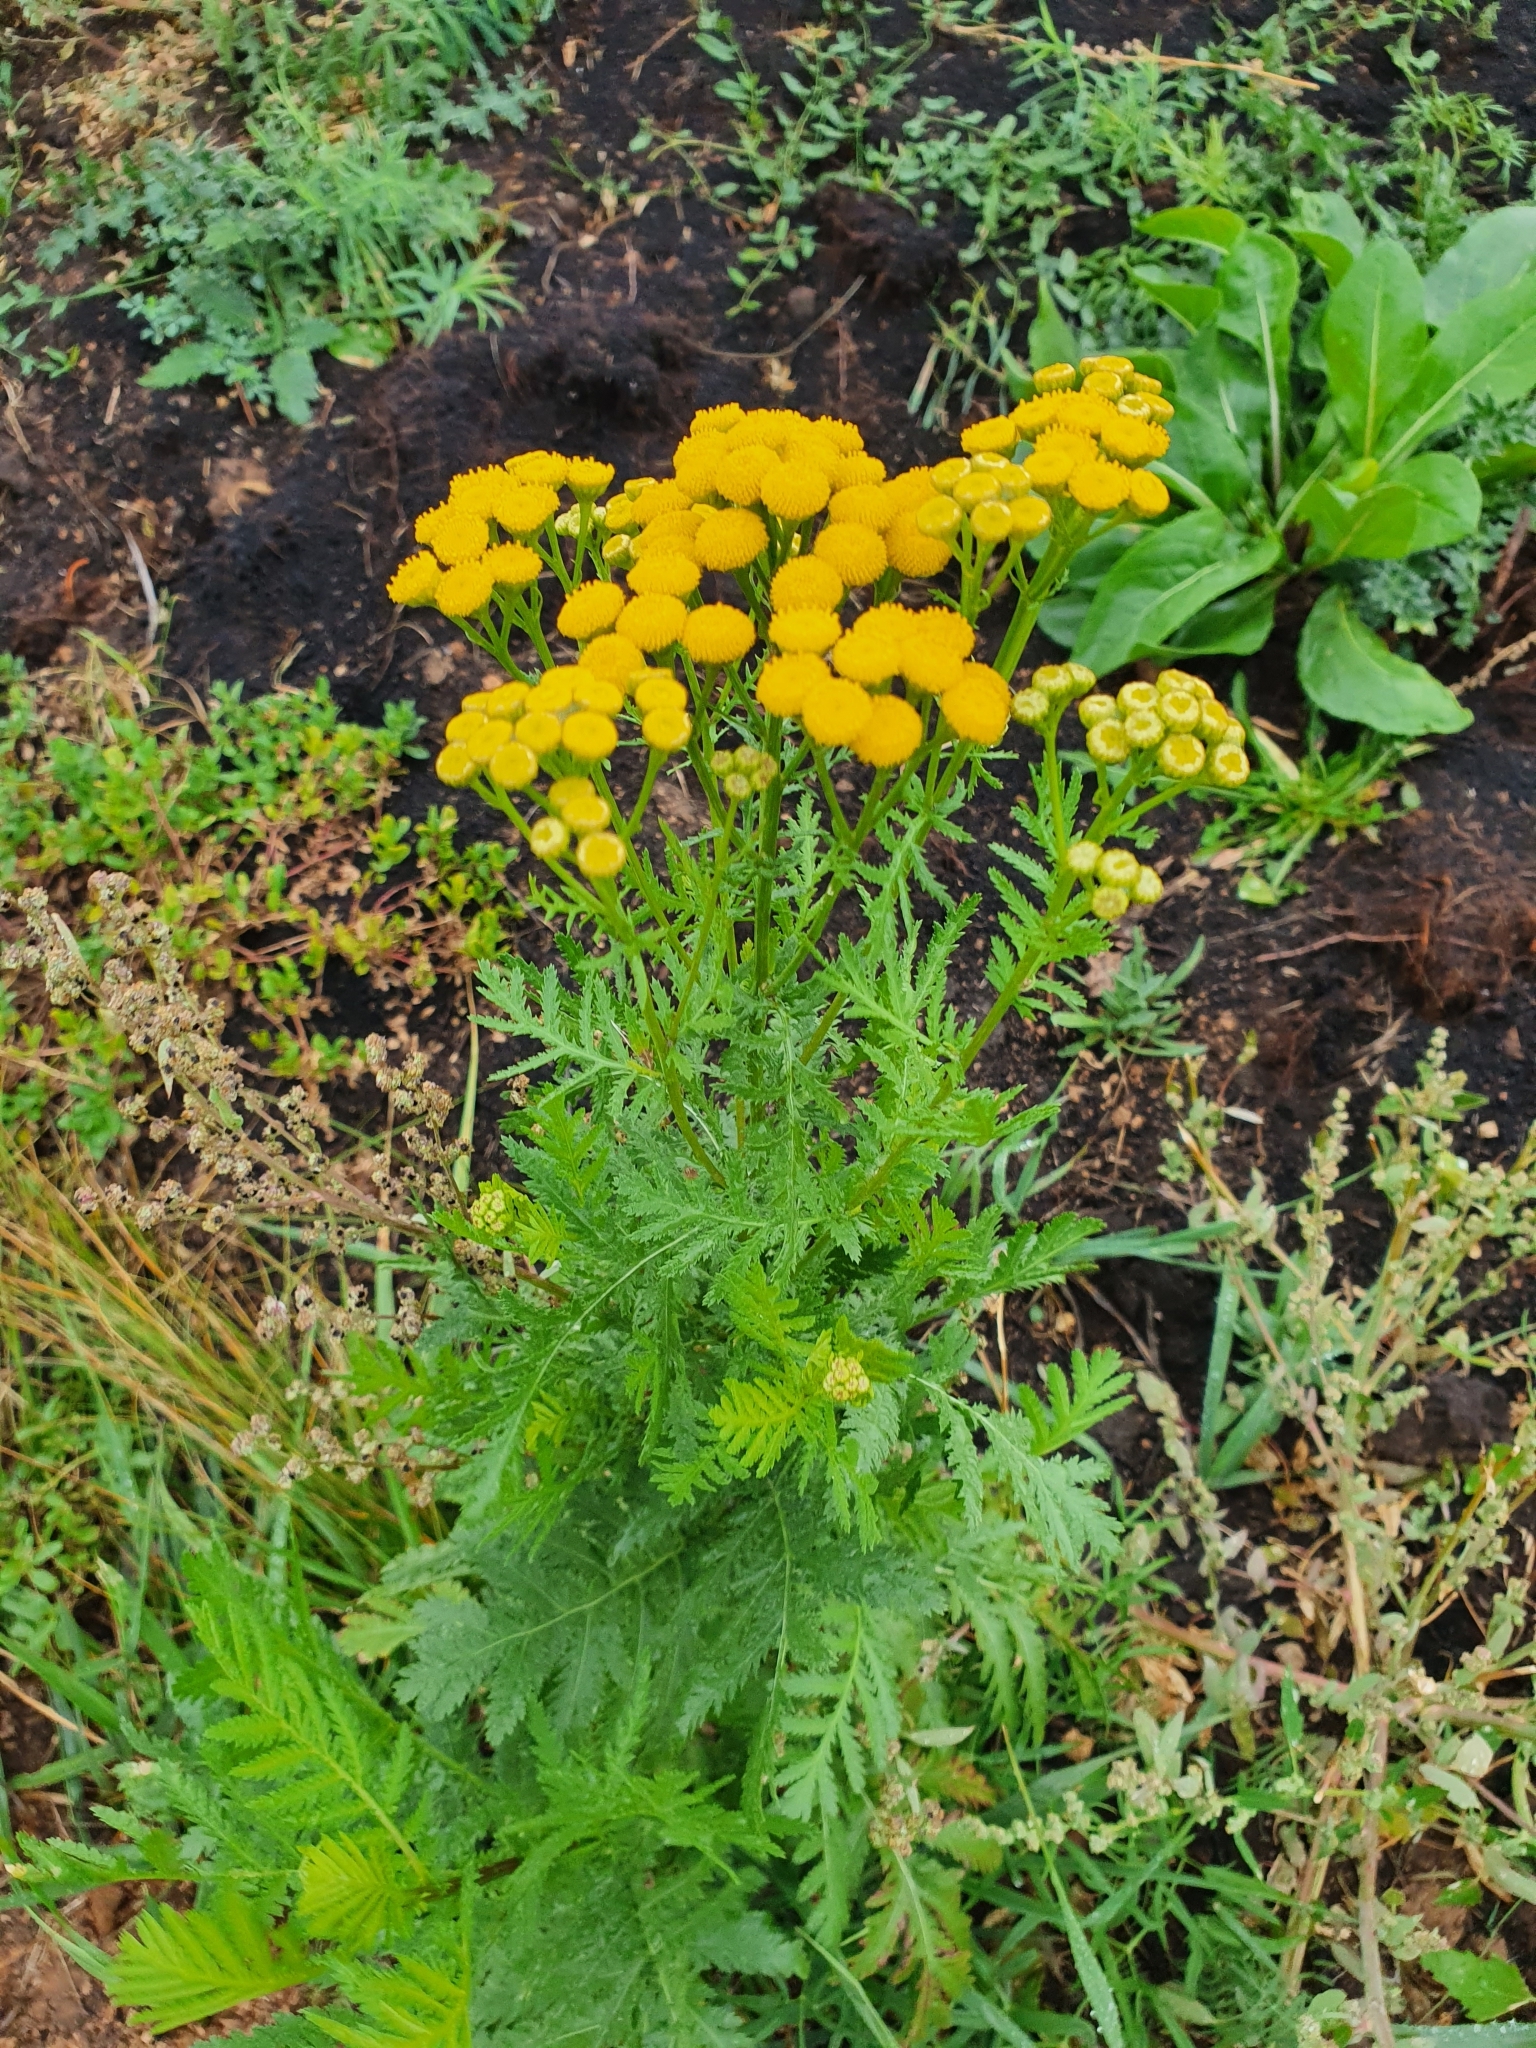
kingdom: Plantae
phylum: Tracheophyta
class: Magnoliopsida
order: Asterales
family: Asteraceae
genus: Tanacetum
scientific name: Tanacetum vulgare
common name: Common tansy
